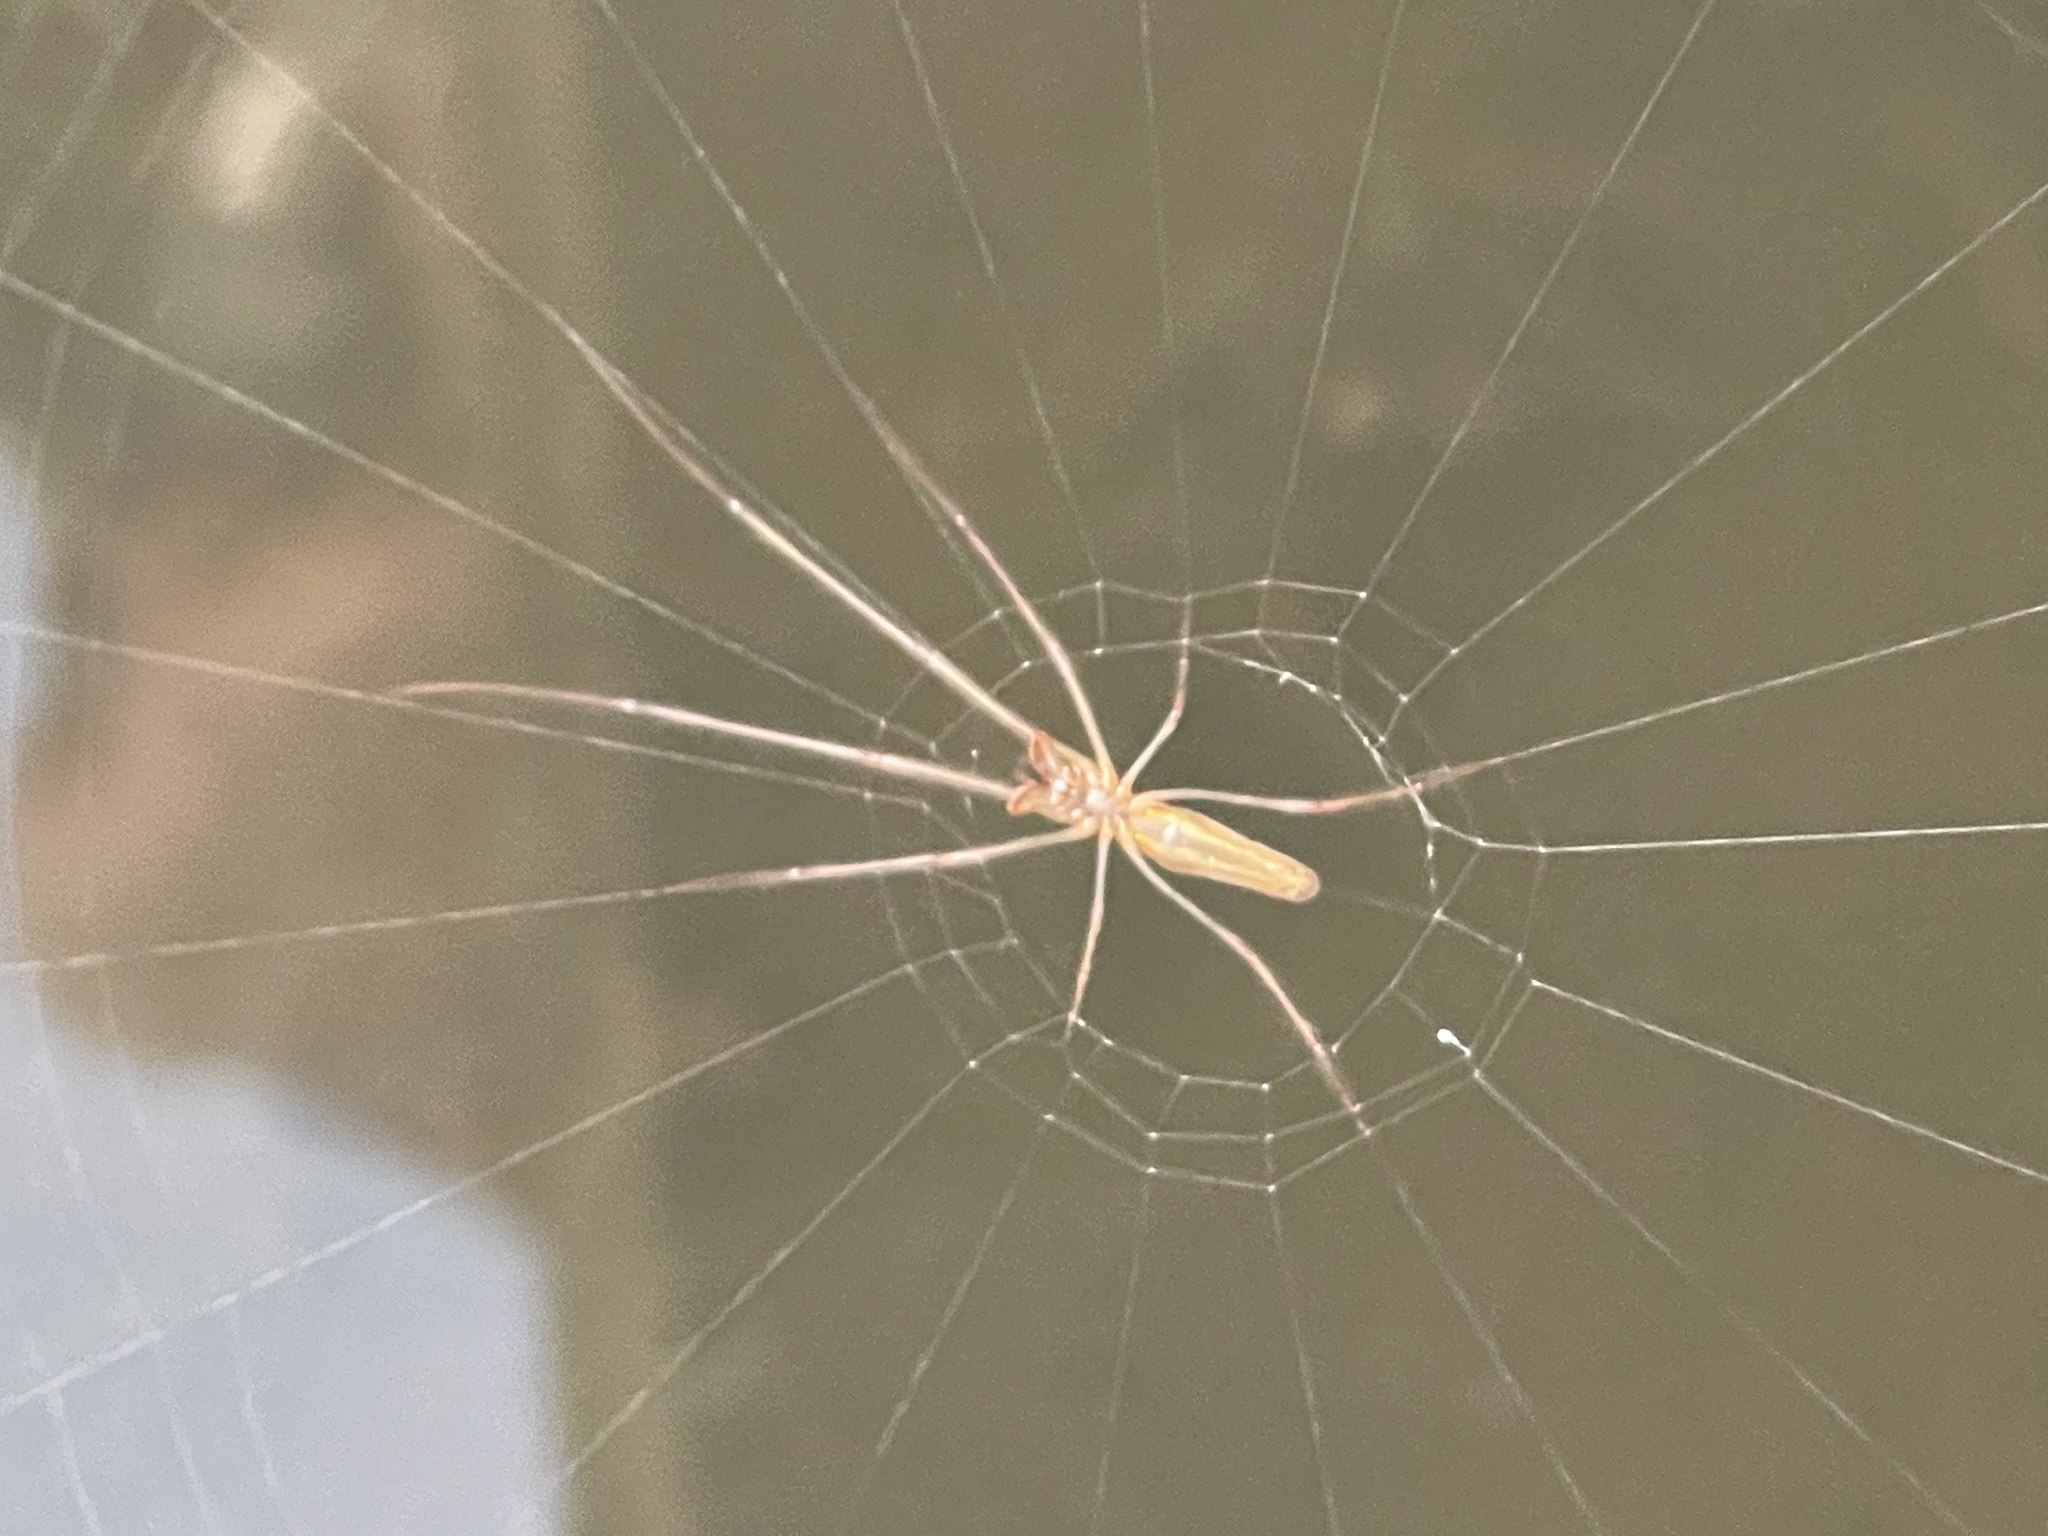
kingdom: Animalia
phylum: Arthropoda
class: Arachnida
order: Araneae
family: Tetragnathidae
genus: Tetragnatha
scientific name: Tetragnatha
